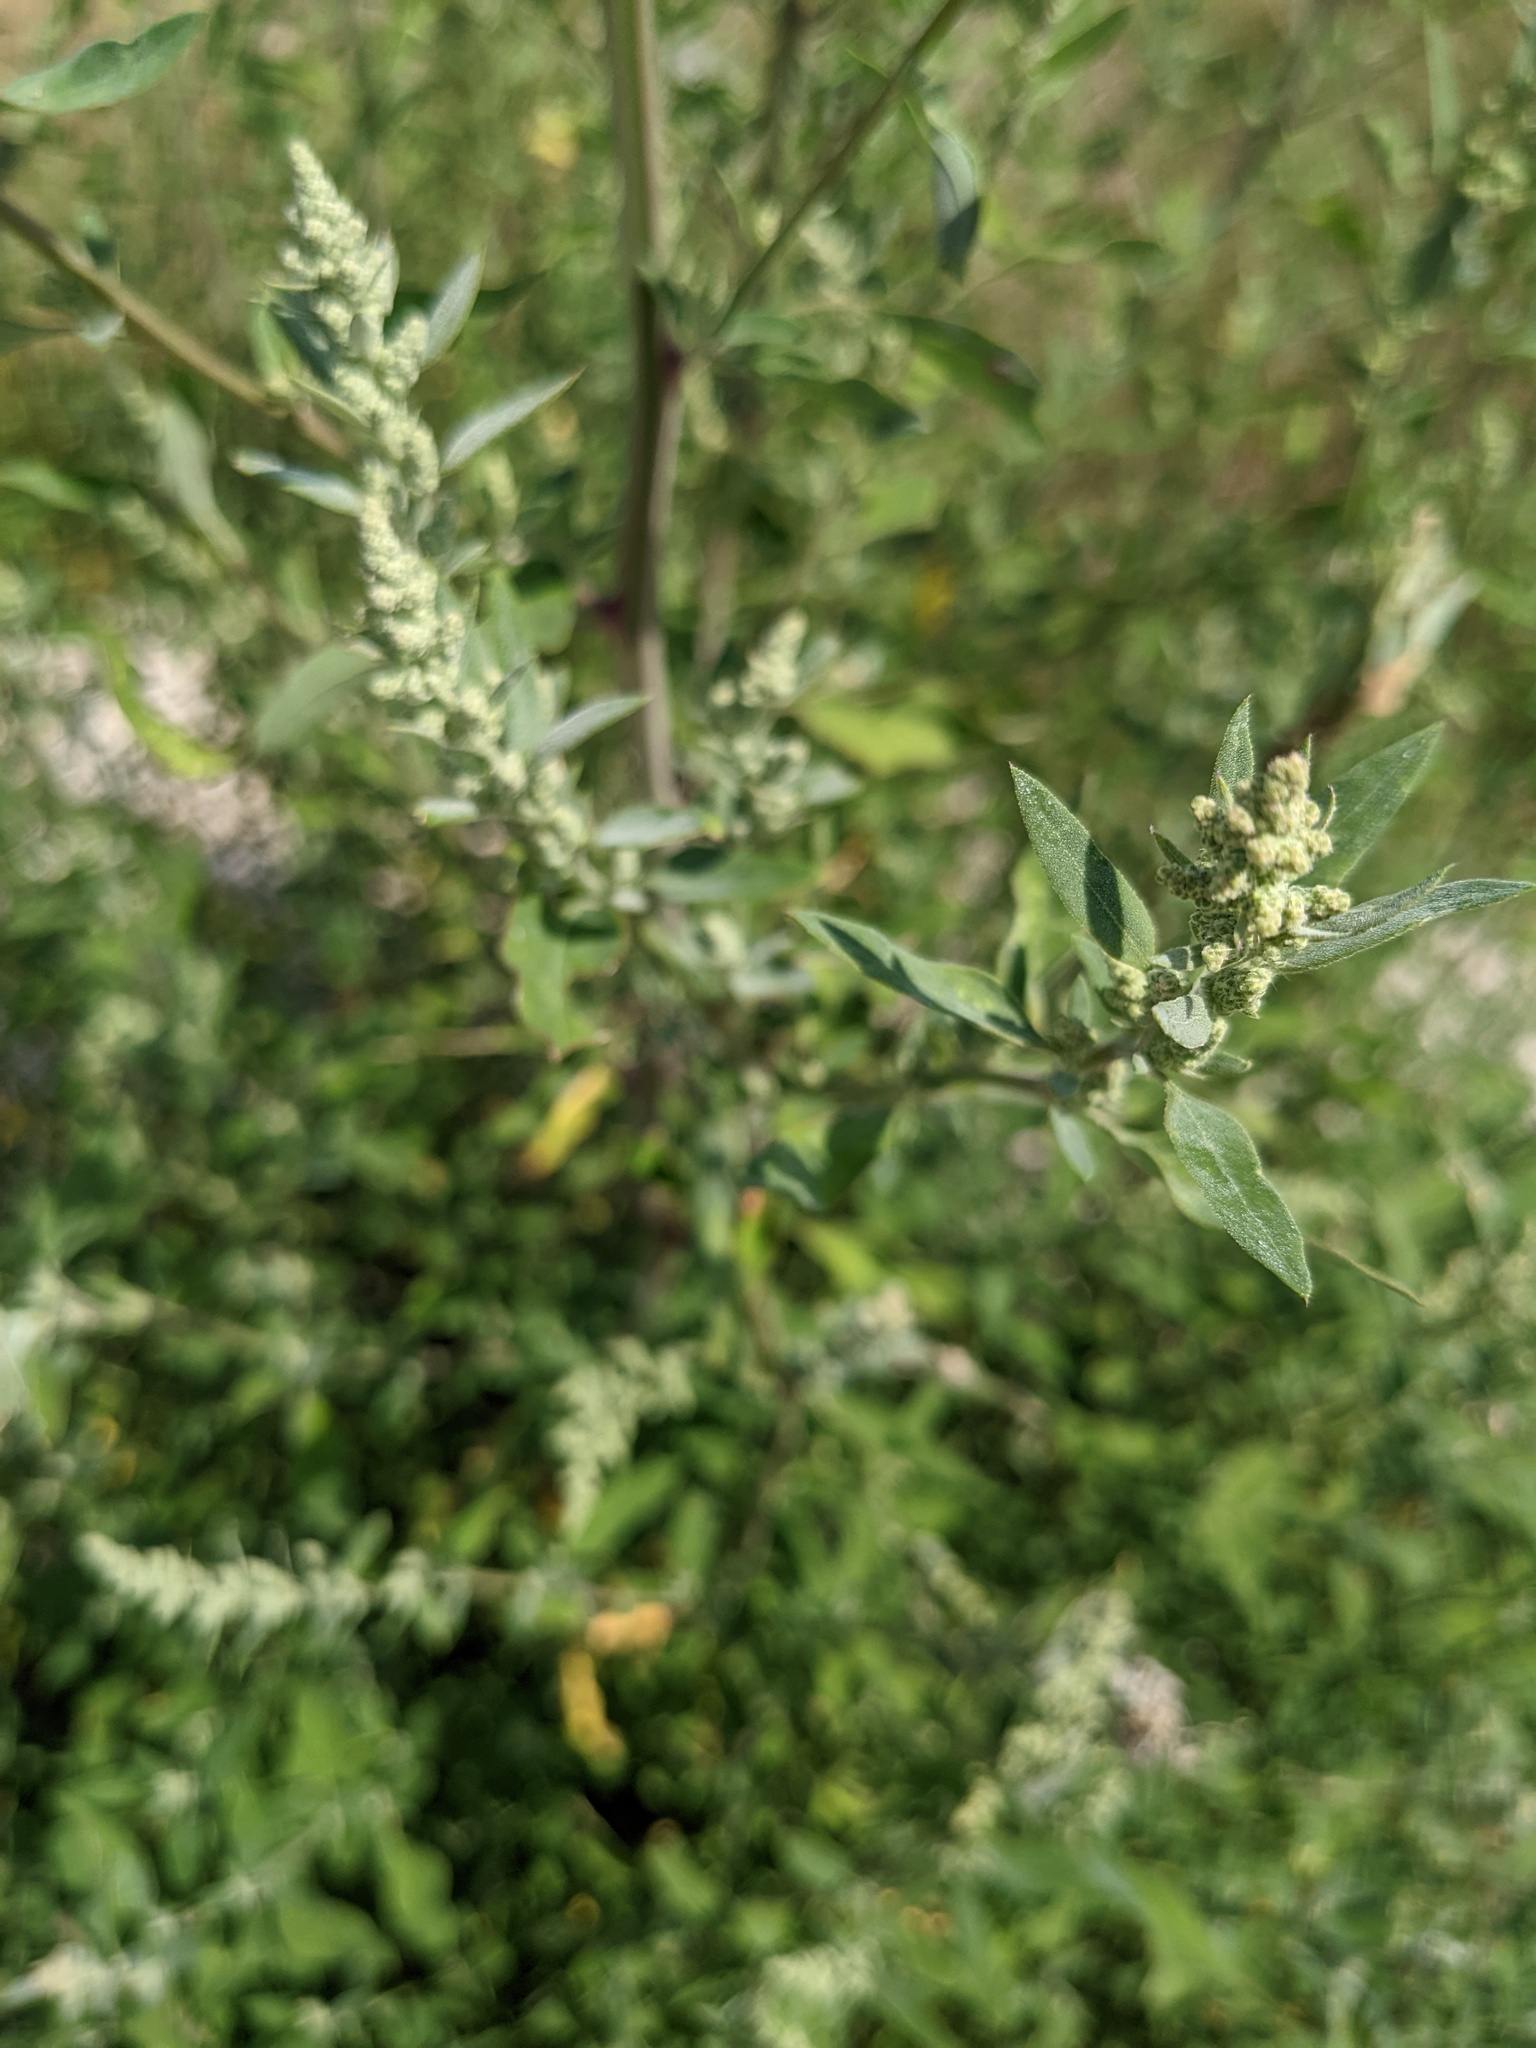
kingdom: Plantae
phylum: Tracheophyta
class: Magnoliopsida
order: Caryophyllales
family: Amaranthaceae
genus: Chenopodium
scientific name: Chenopodium album
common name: Fat-hen
